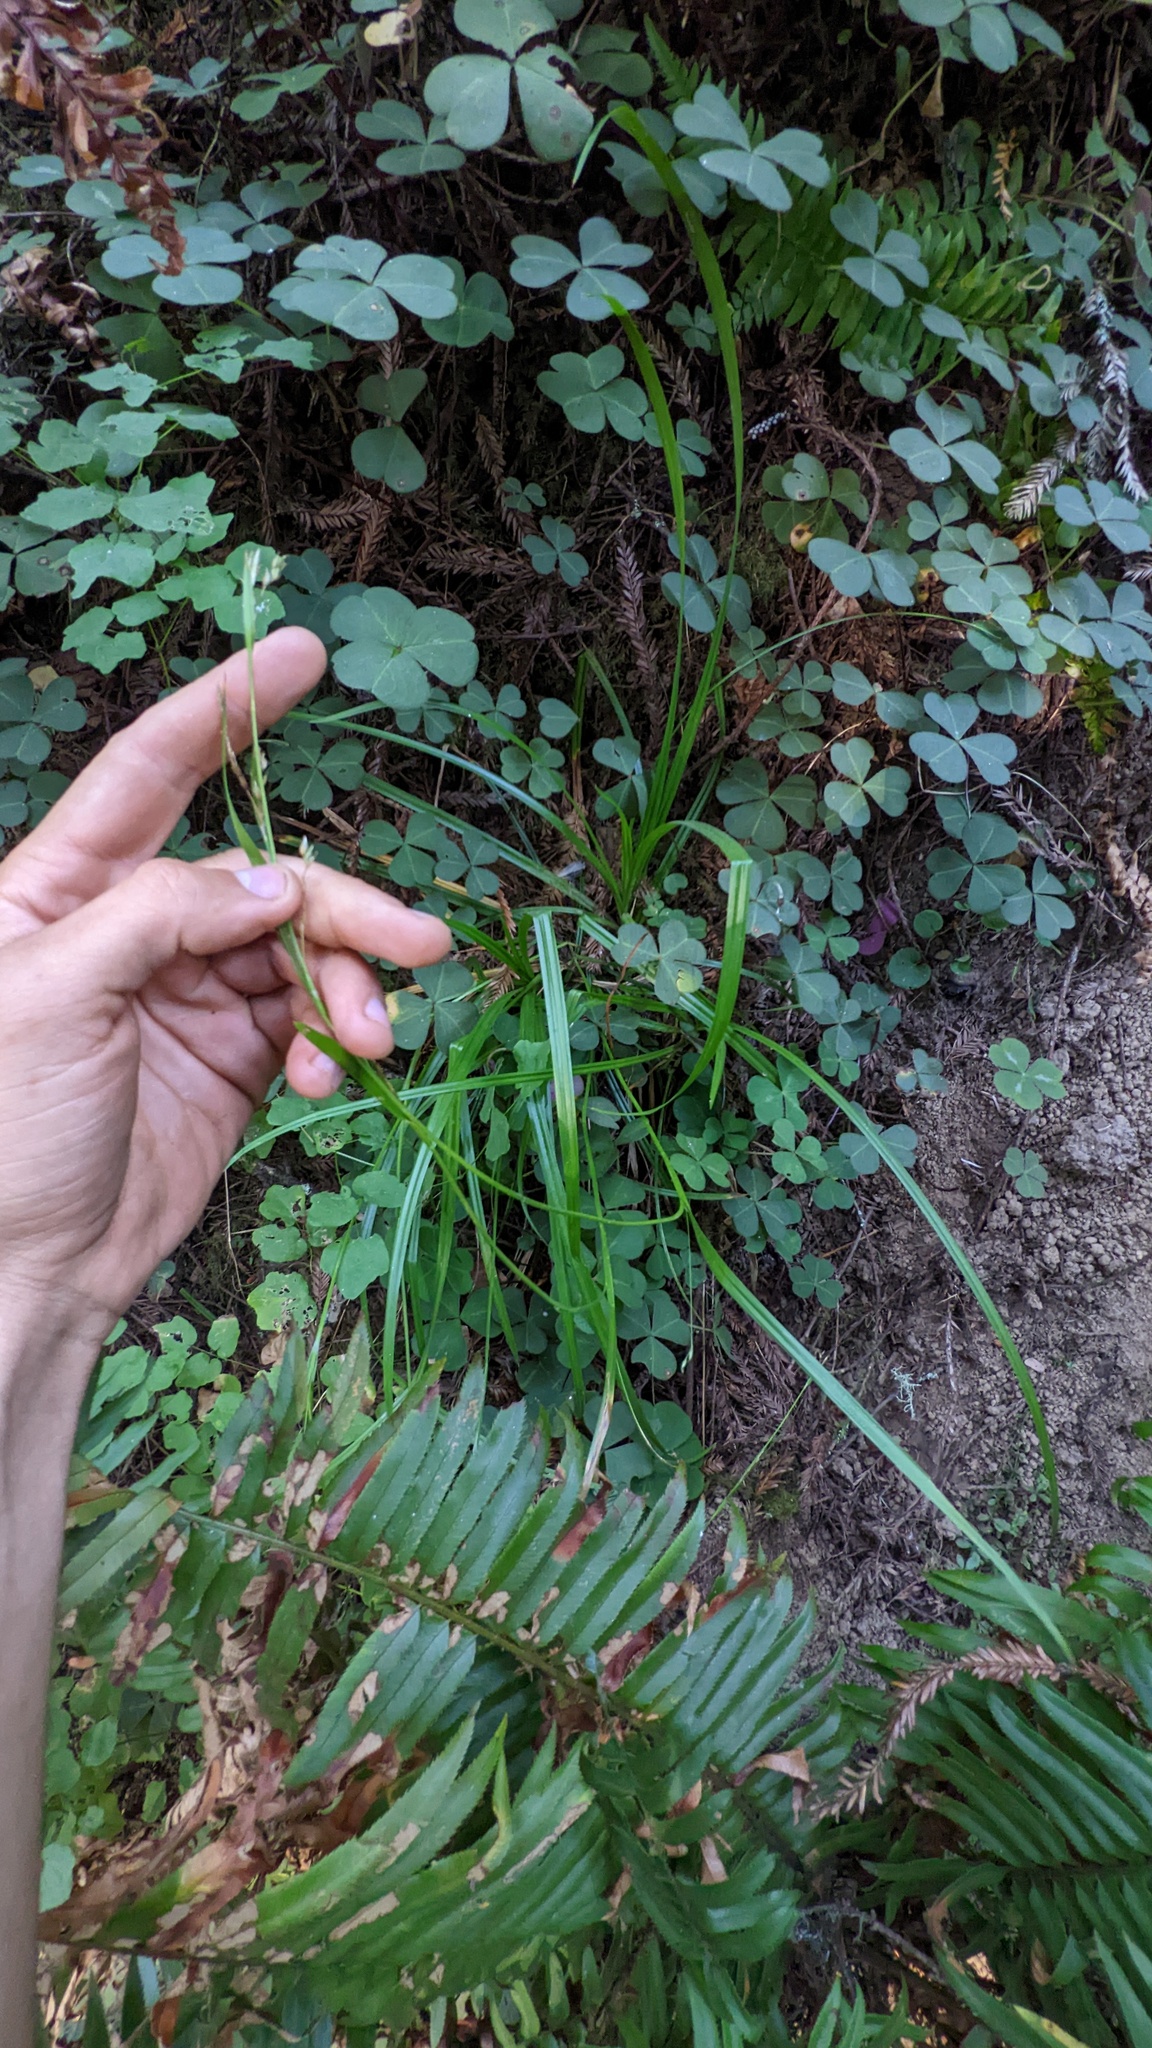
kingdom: Plantae
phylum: Tracheophyta
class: Liliopsida
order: Poales
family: Cyperaceae
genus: Carex
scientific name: Carex hendersonii
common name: Henderson's sedge
